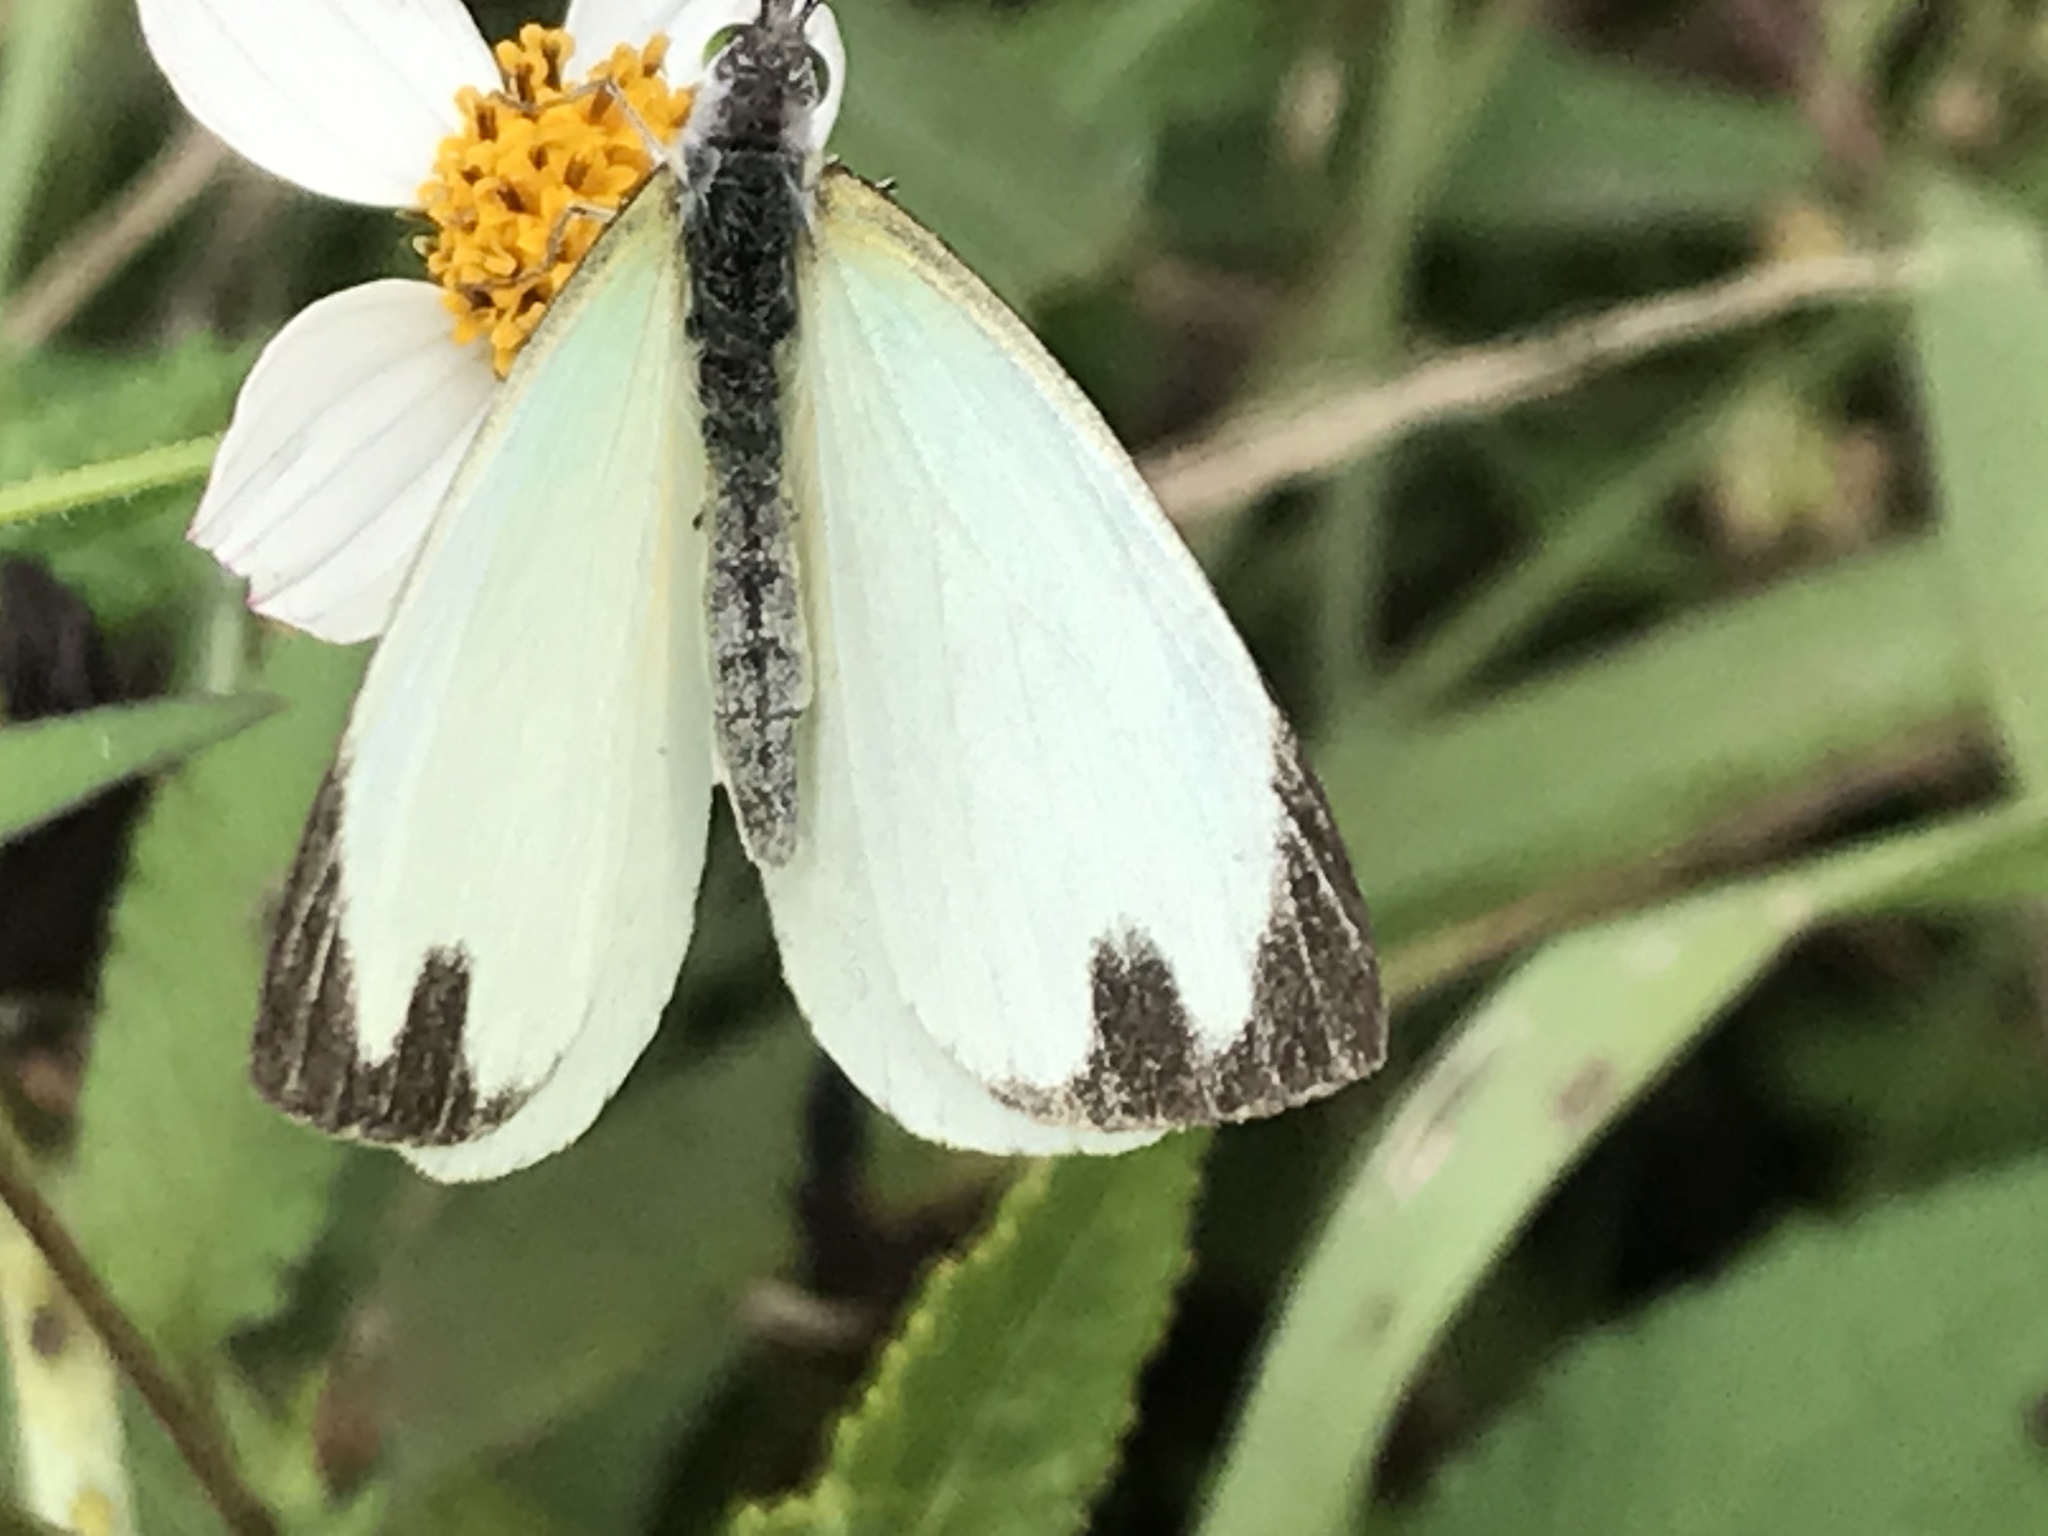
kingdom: Animalia
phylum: Arthropoda
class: Insecta
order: Lepidoptera
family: Pieridae
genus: Leptophobia
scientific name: Leptophobia aripa
